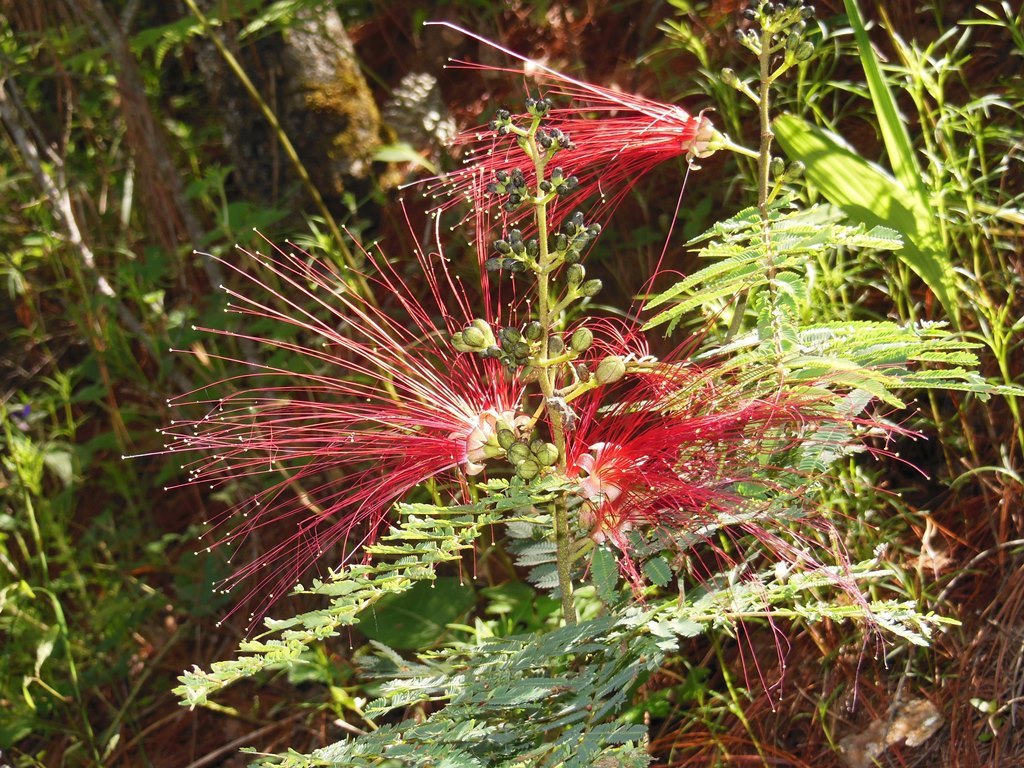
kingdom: Plantae
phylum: Tracheophyta
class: Magnoliopsida
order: Fabales
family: Fabaceae
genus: Calliandra
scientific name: Calliandra houstoniana
